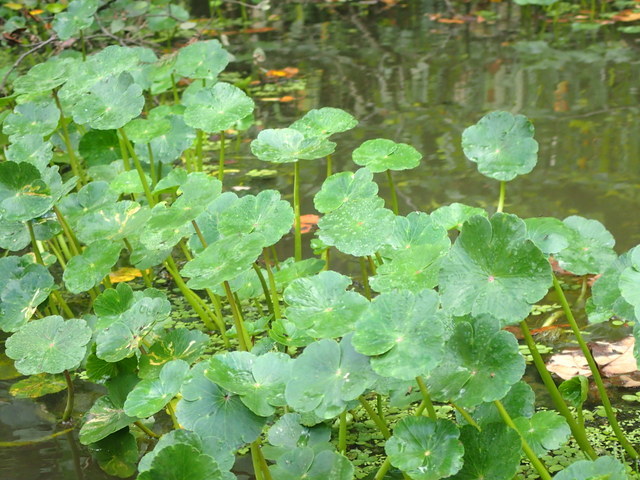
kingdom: Plantae
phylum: Tracheophyta
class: Magnoliopsida
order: Apiales
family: Araliaceae
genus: Hydrocotyle
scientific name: Hydrocotyle ranunculoides
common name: Floating pennywort
